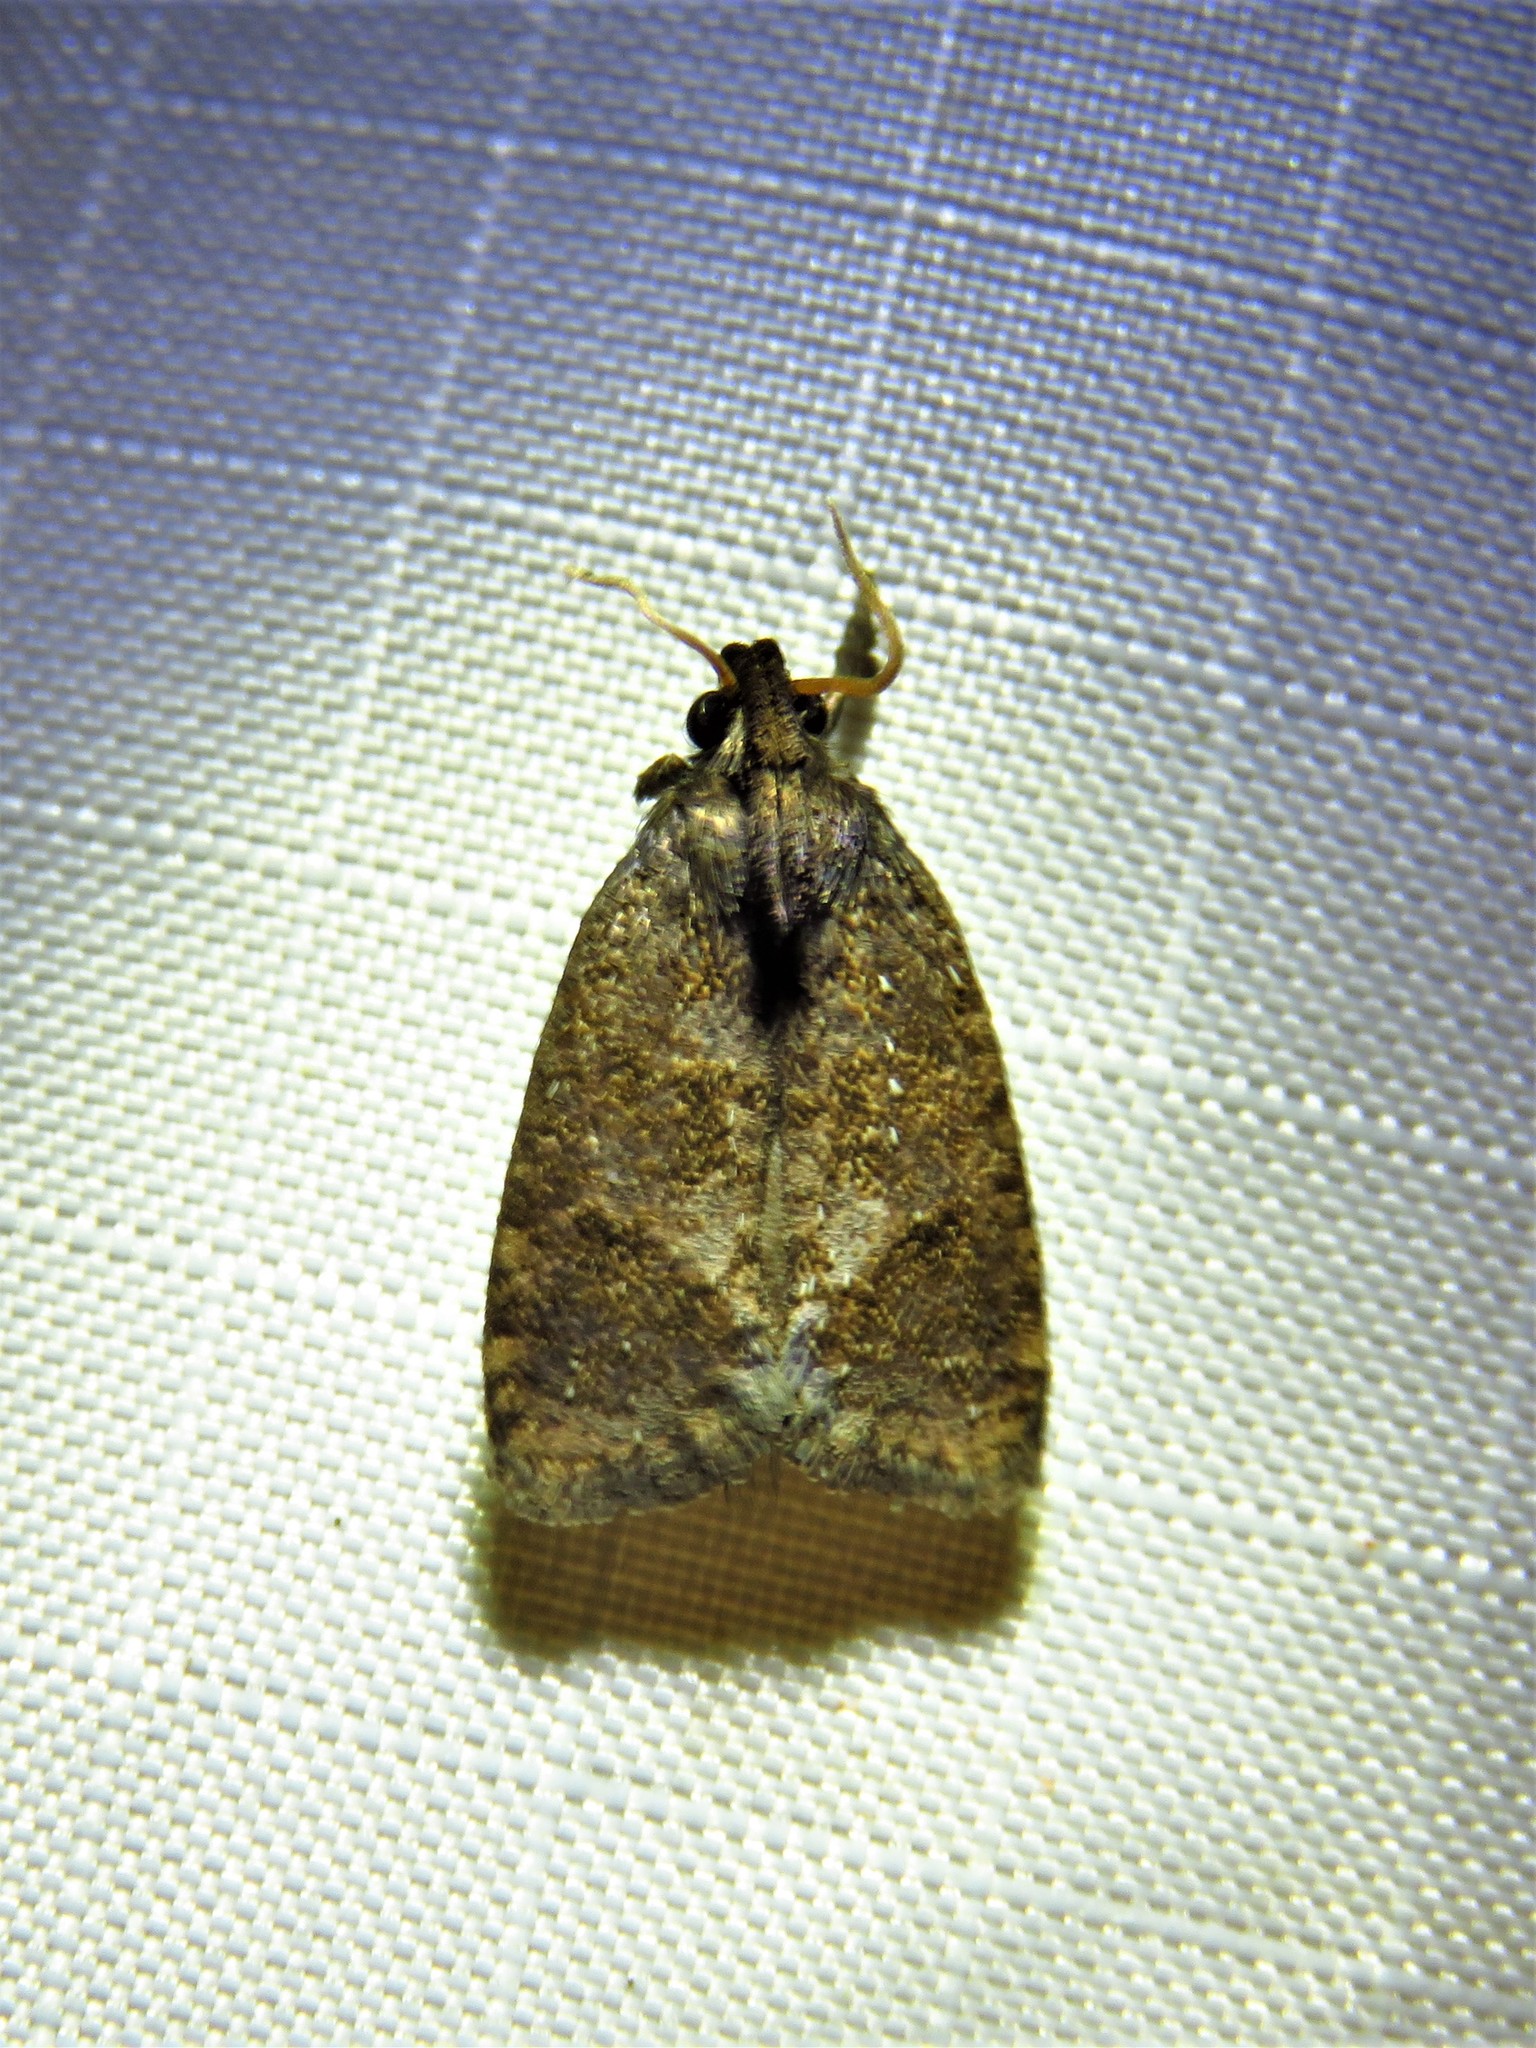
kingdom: Animalia
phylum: Arthropoda
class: Insecta
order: Lepidoptera
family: Tineidae
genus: Acrolophus
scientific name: Acrolophus texanella
